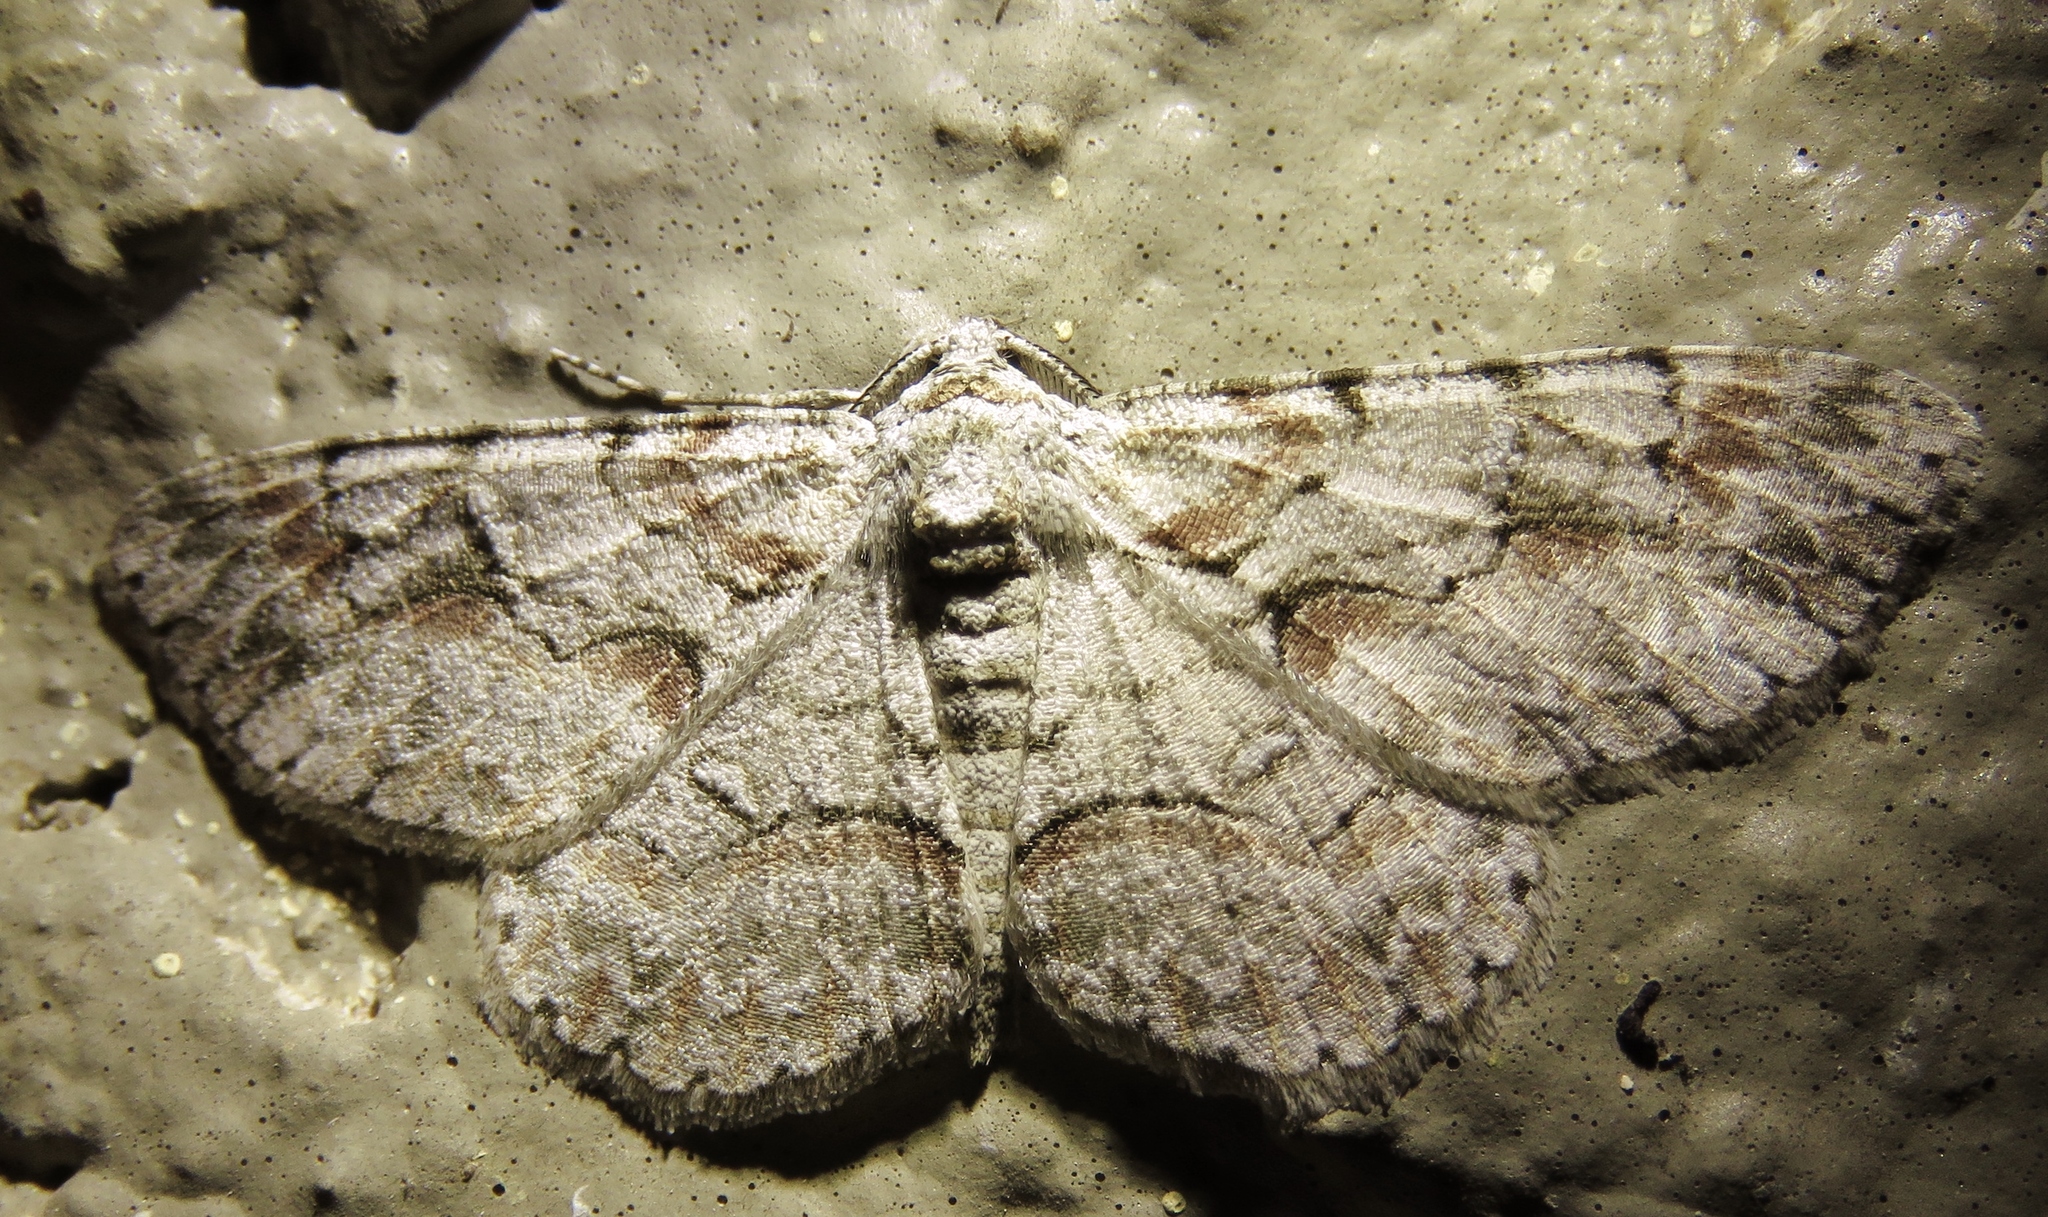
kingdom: Animalia
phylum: Arthropoda
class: Insecta
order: Lepidoptera
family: Geometridae
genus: Iridopsis
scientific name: Iridopsis defectaria
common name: Brown-shaded gray
